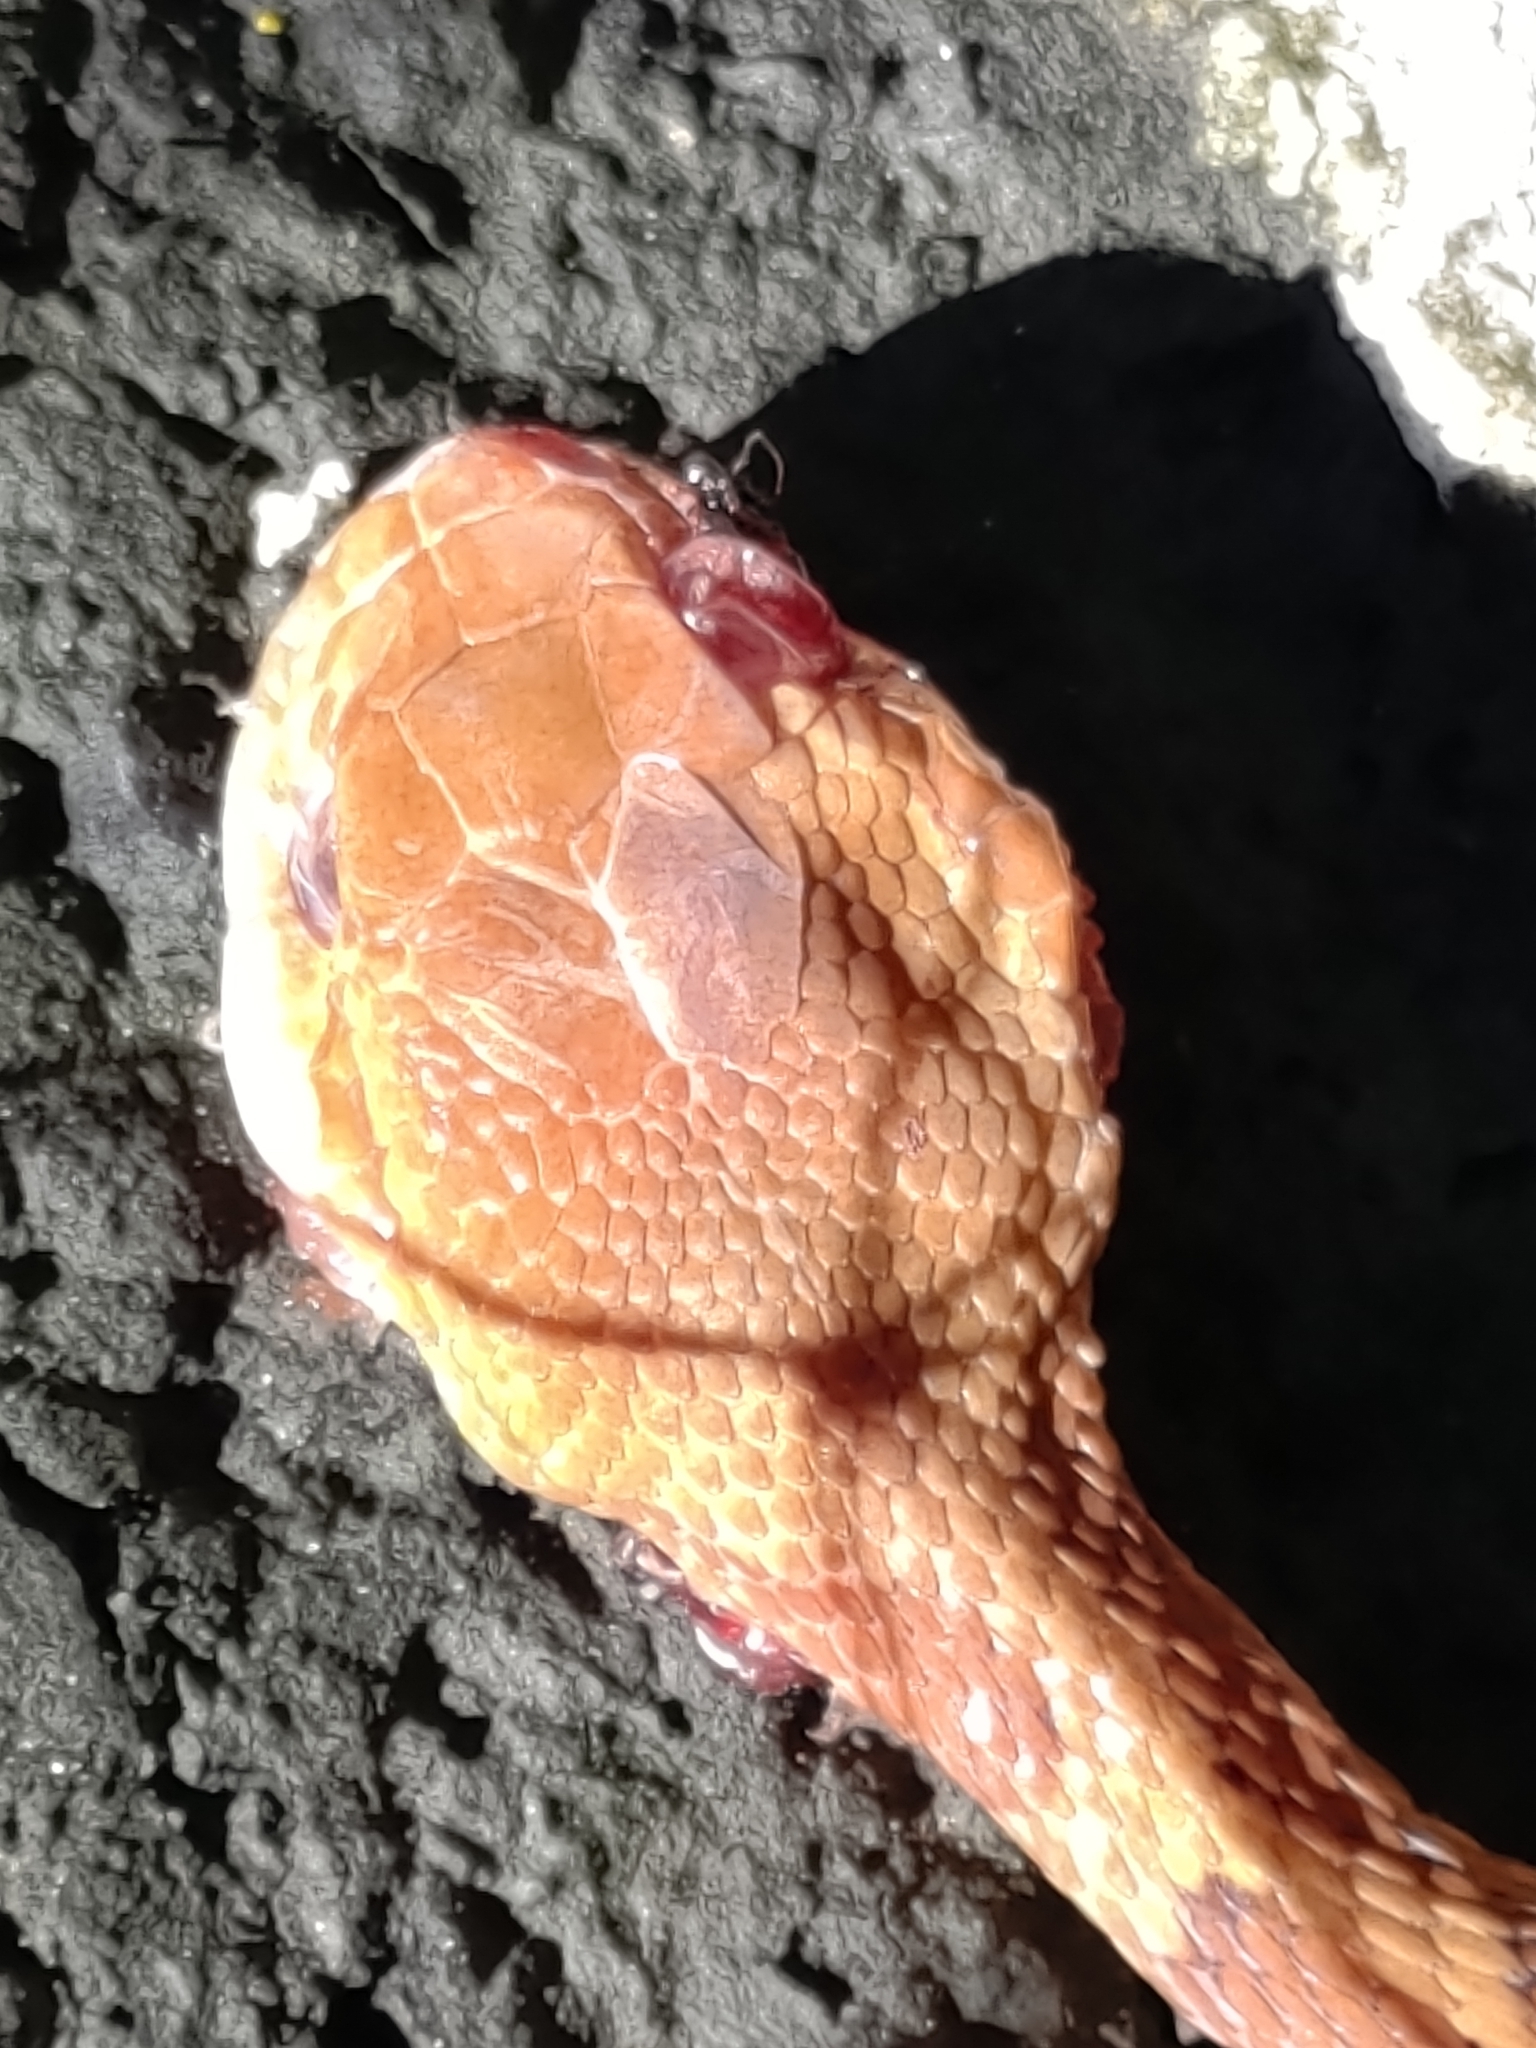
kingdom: Animalia
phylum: Chordata
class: Squamata
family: Colubridae
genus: Boiga
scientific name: Boiga kraepelini
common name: Kelung cat snake
